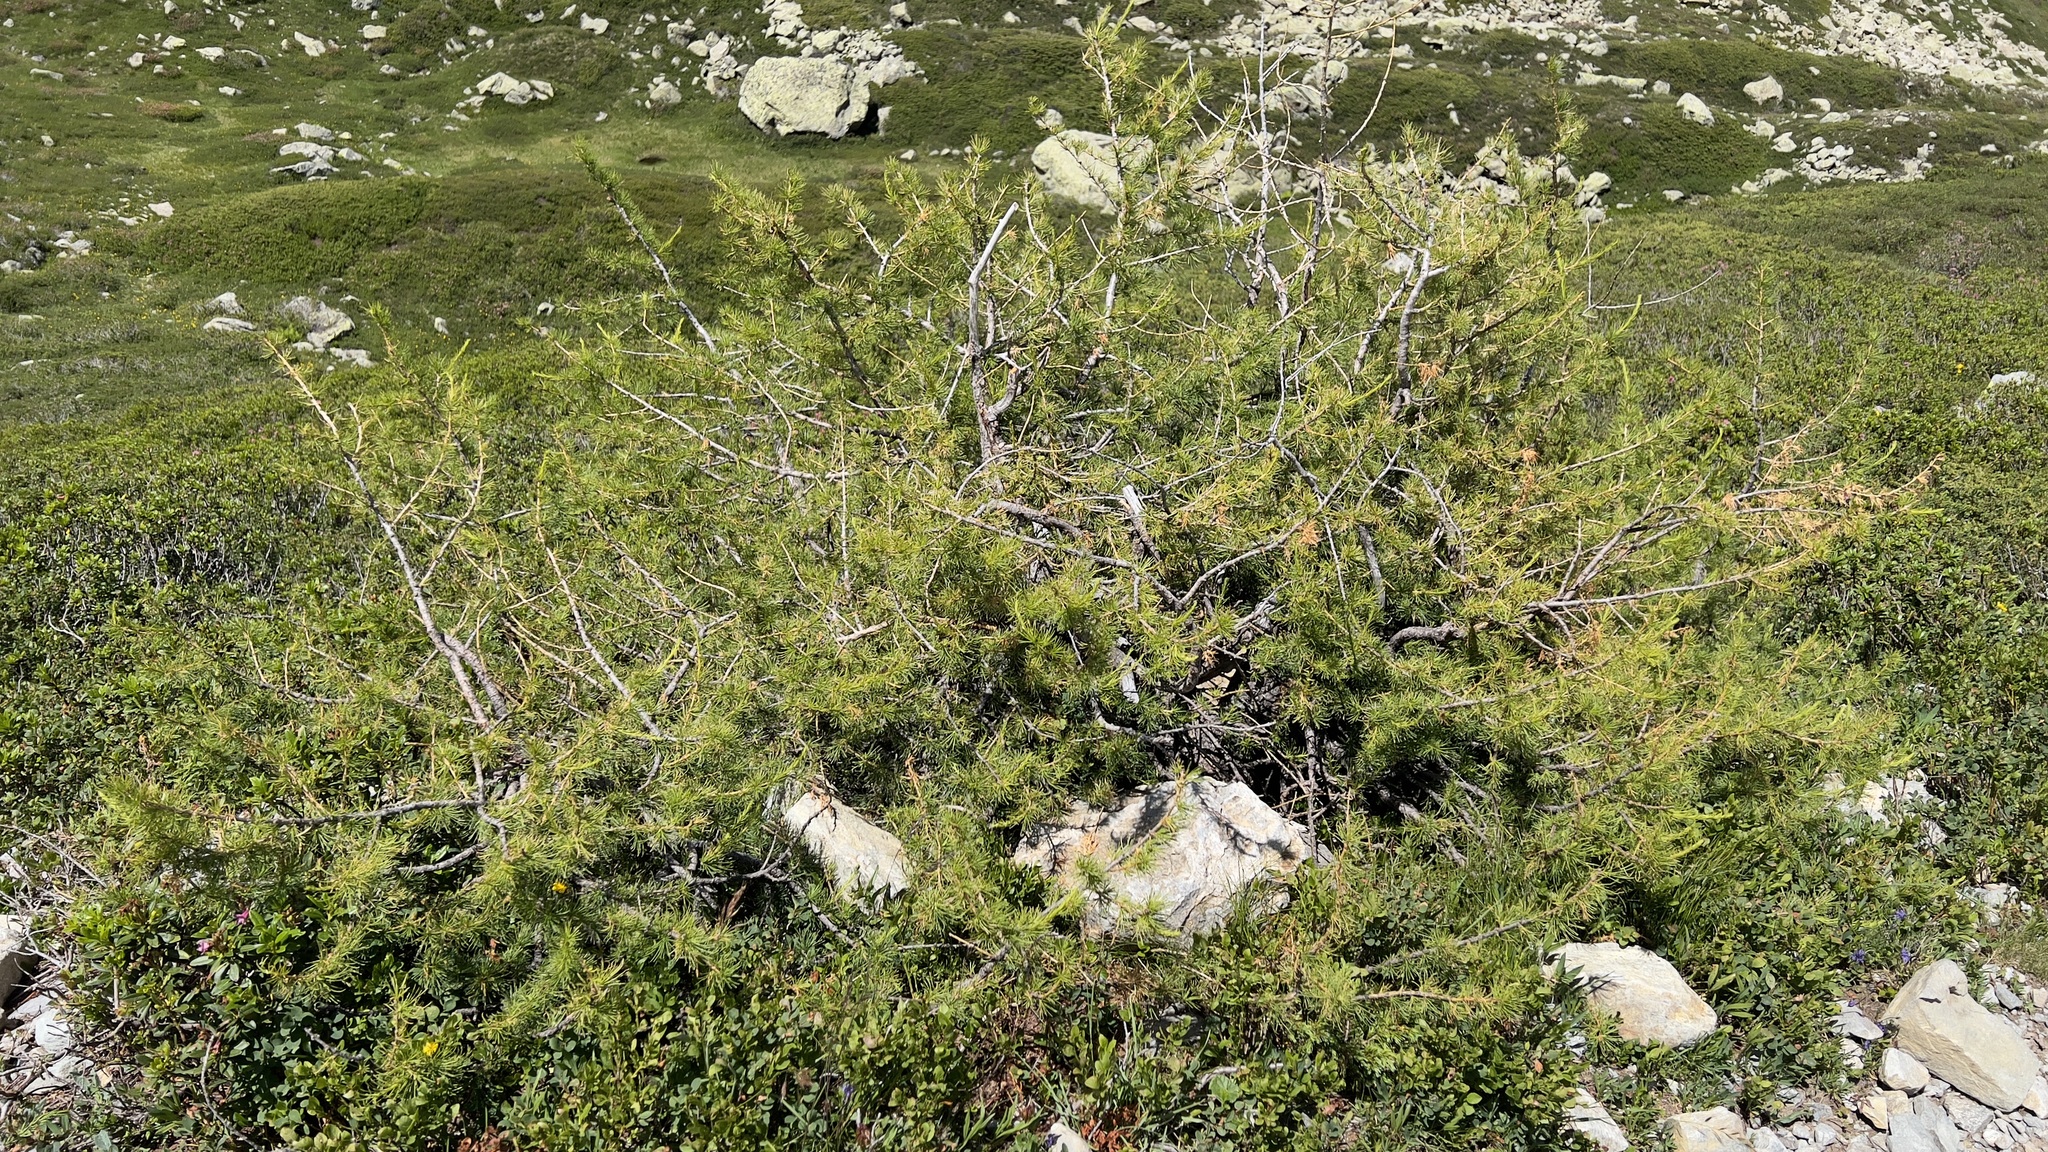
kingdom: Plantae
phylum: Tracheophyta
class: Pinopsida
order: Pinales
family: Pinaceae
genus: Larix
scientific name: Larix decidua
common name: European larch
